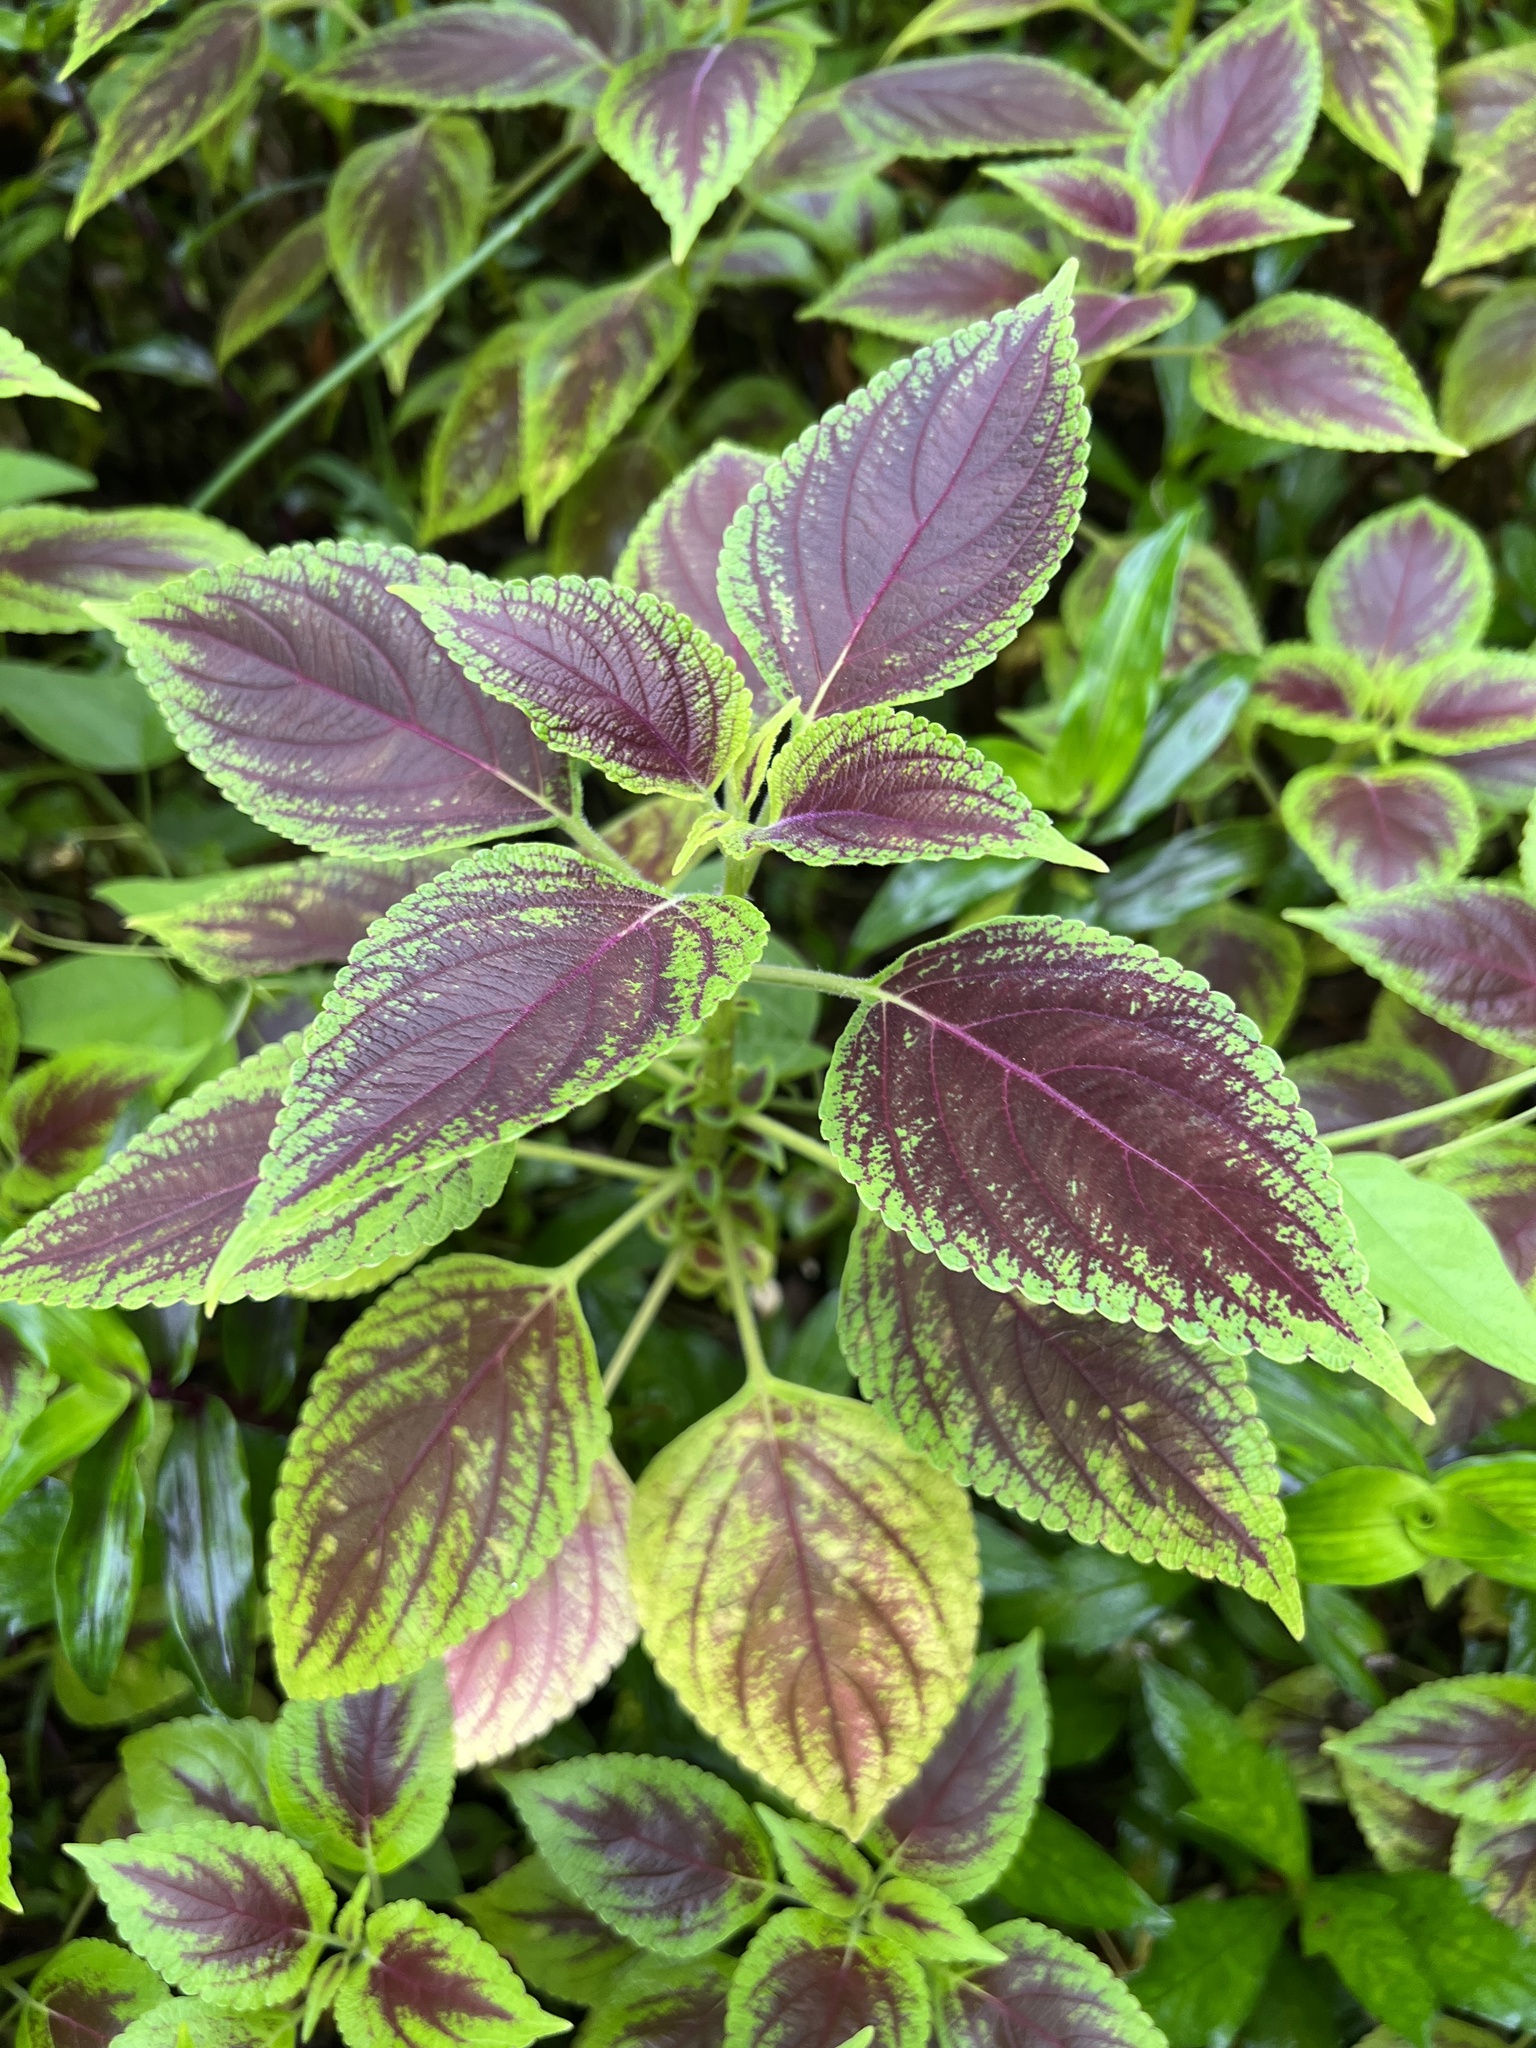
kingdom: Plantae
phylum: Tracheophyta
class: Magnoliopsida
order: Lamiales
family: Lamiaceae
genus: Coleus
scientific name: Coleus scutellarioides
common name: Coleus
